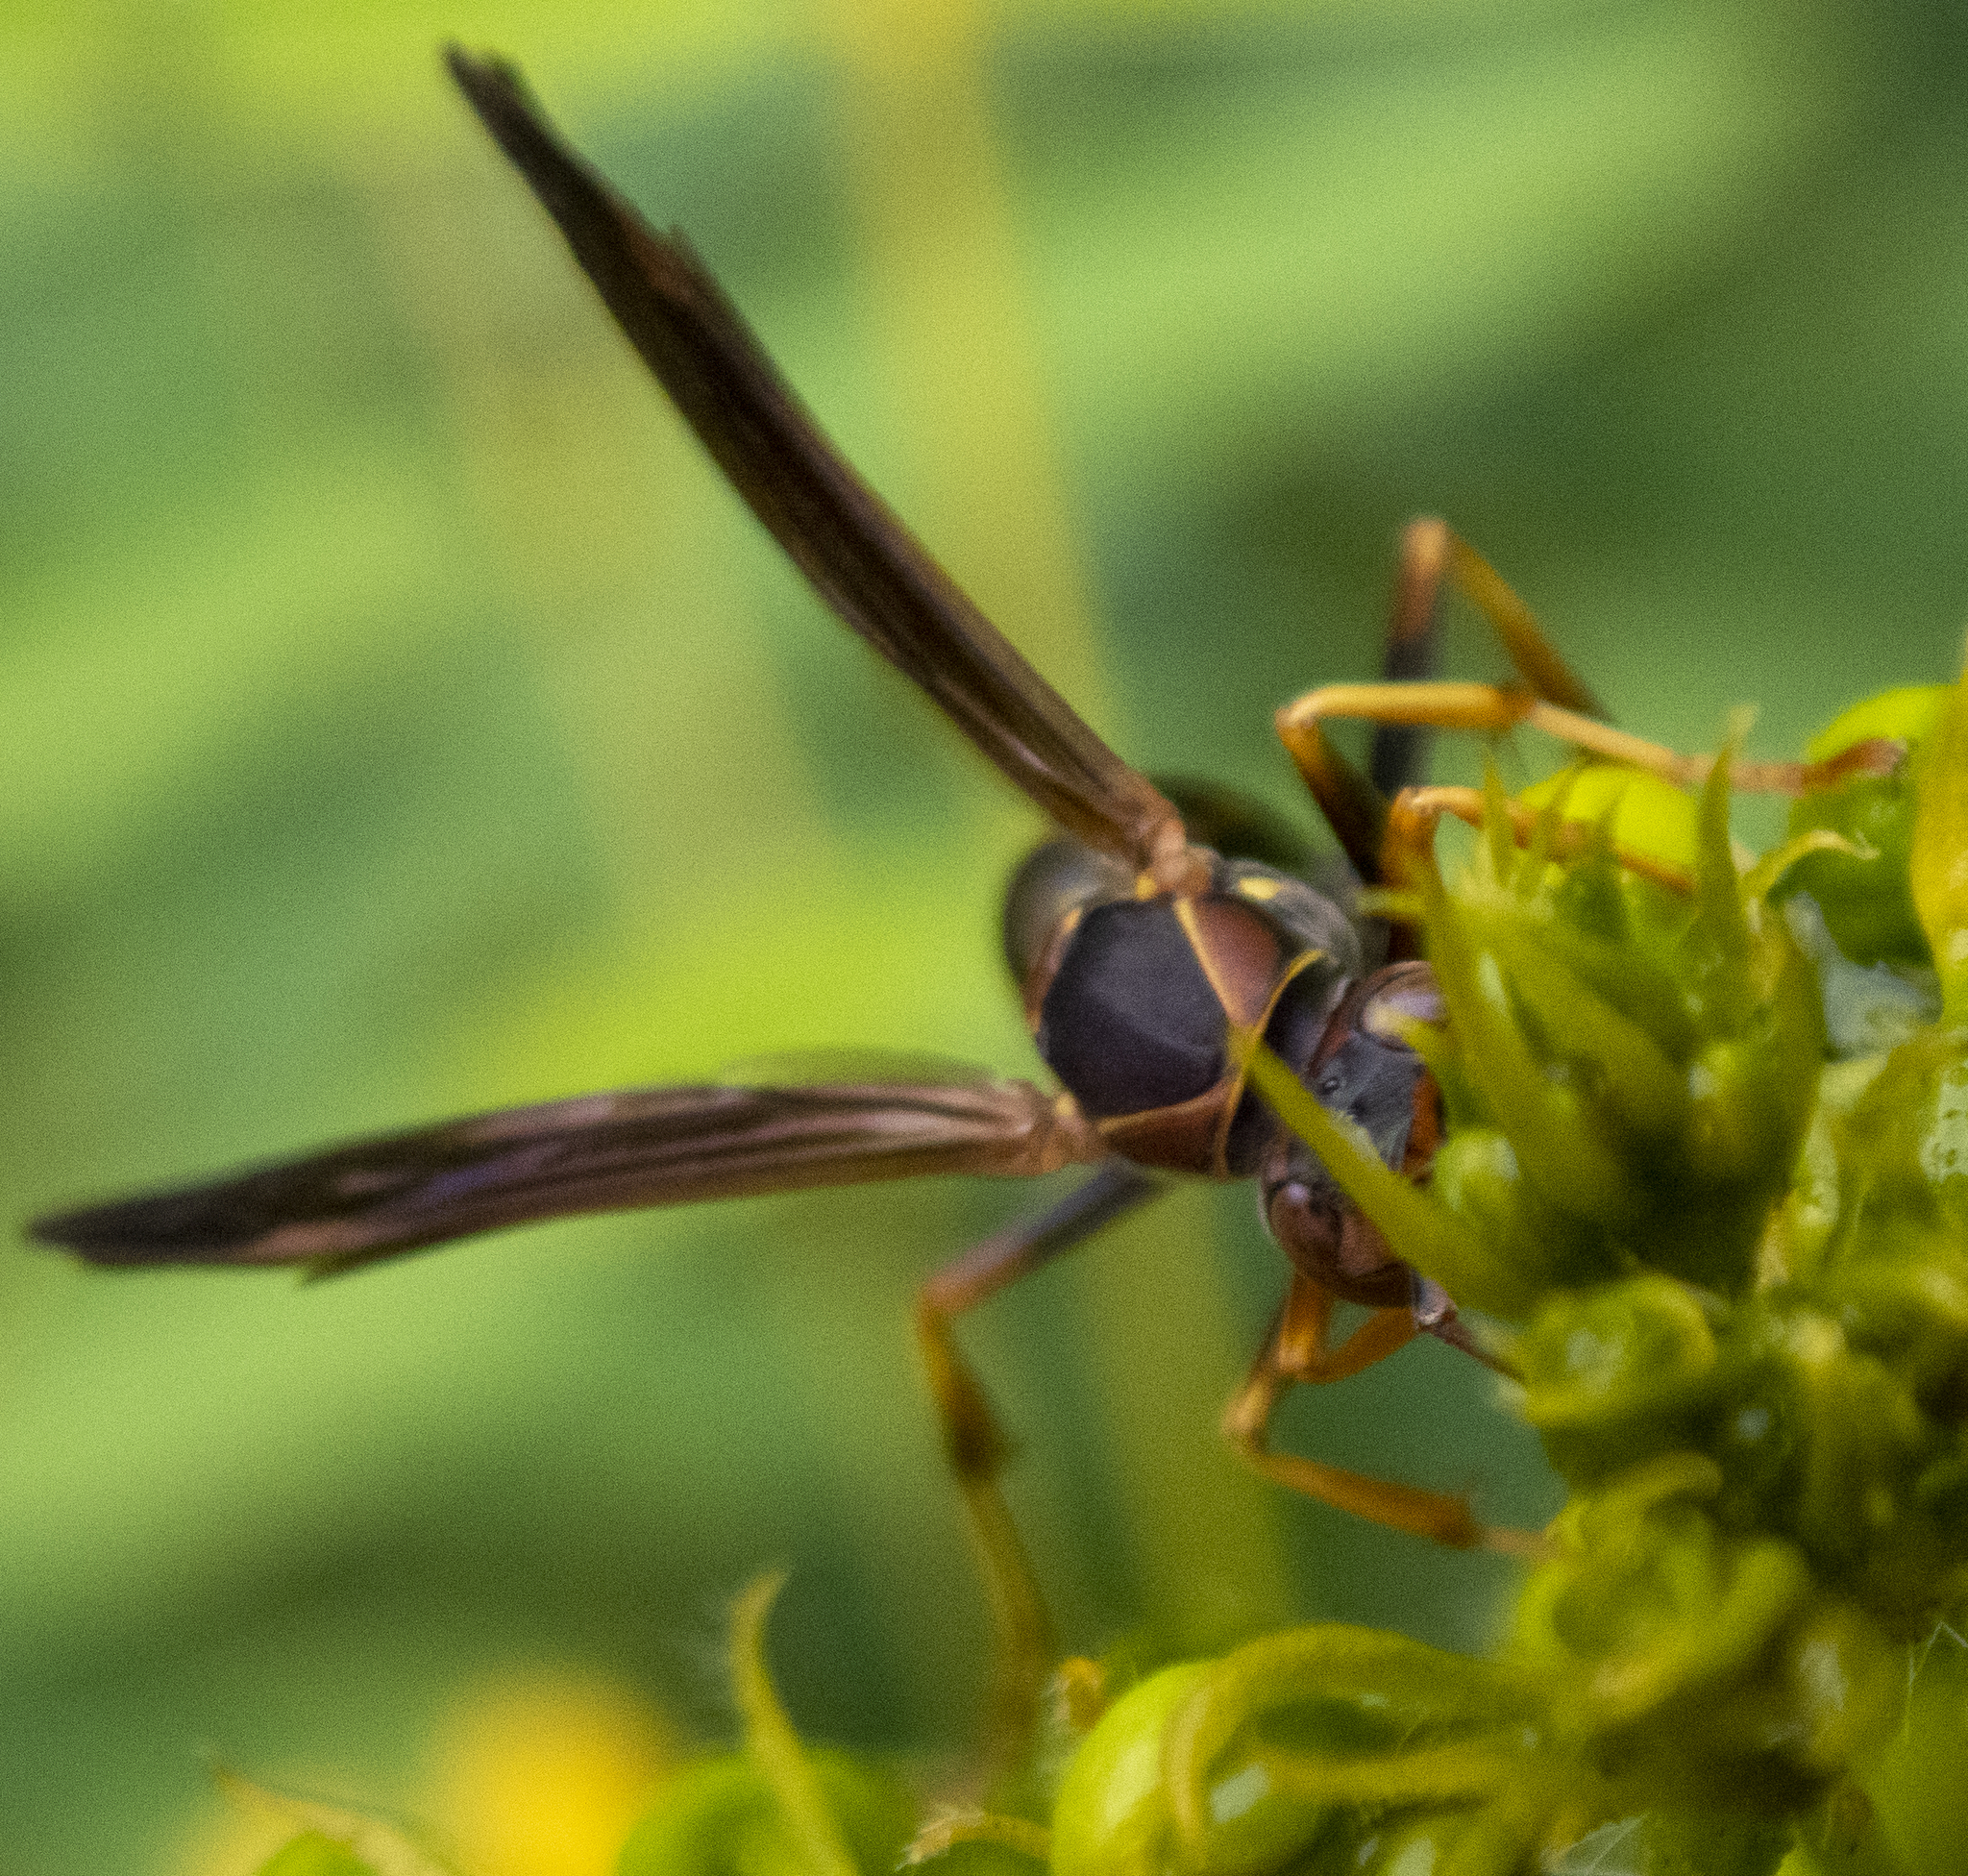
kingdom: Animalia
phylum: Arthropoda
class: Insecta
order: Hymenoptera
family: Eumenidae
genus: Polistes
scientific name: Polistes fuscatus
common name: Dark paper wasp
